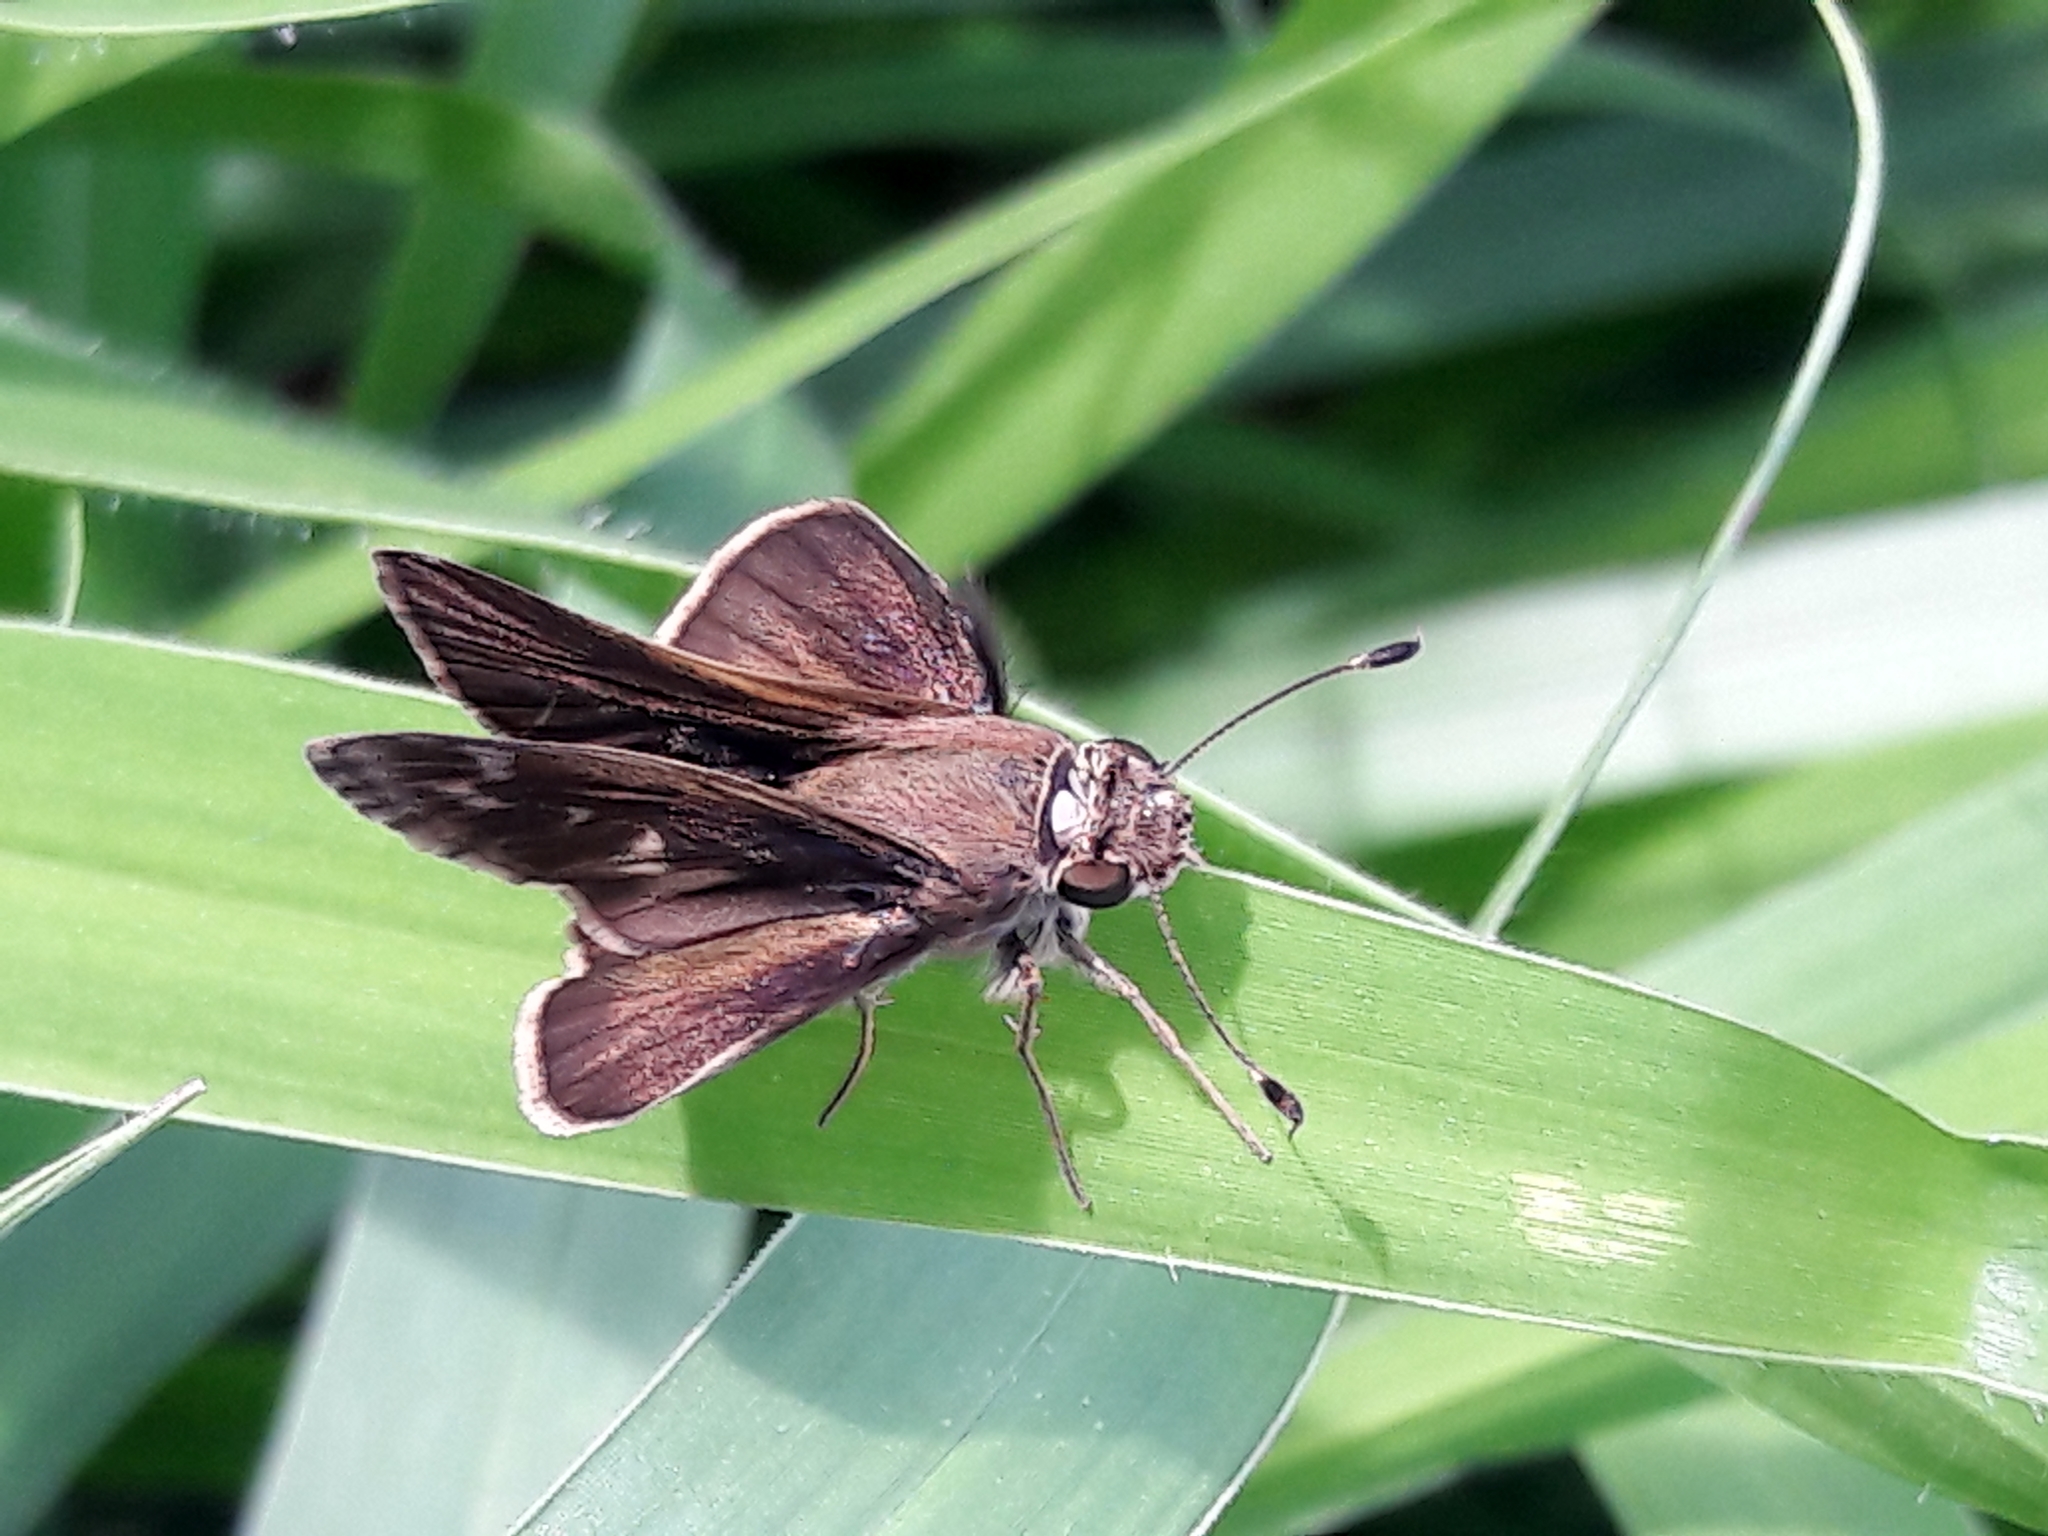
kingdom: Animalia
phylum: Arthropoda
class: Insecta
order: Lepidoptera
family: Hesperiidae
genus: Pompeius
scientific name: Pompeius pompeius
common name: Pompeius skipper
